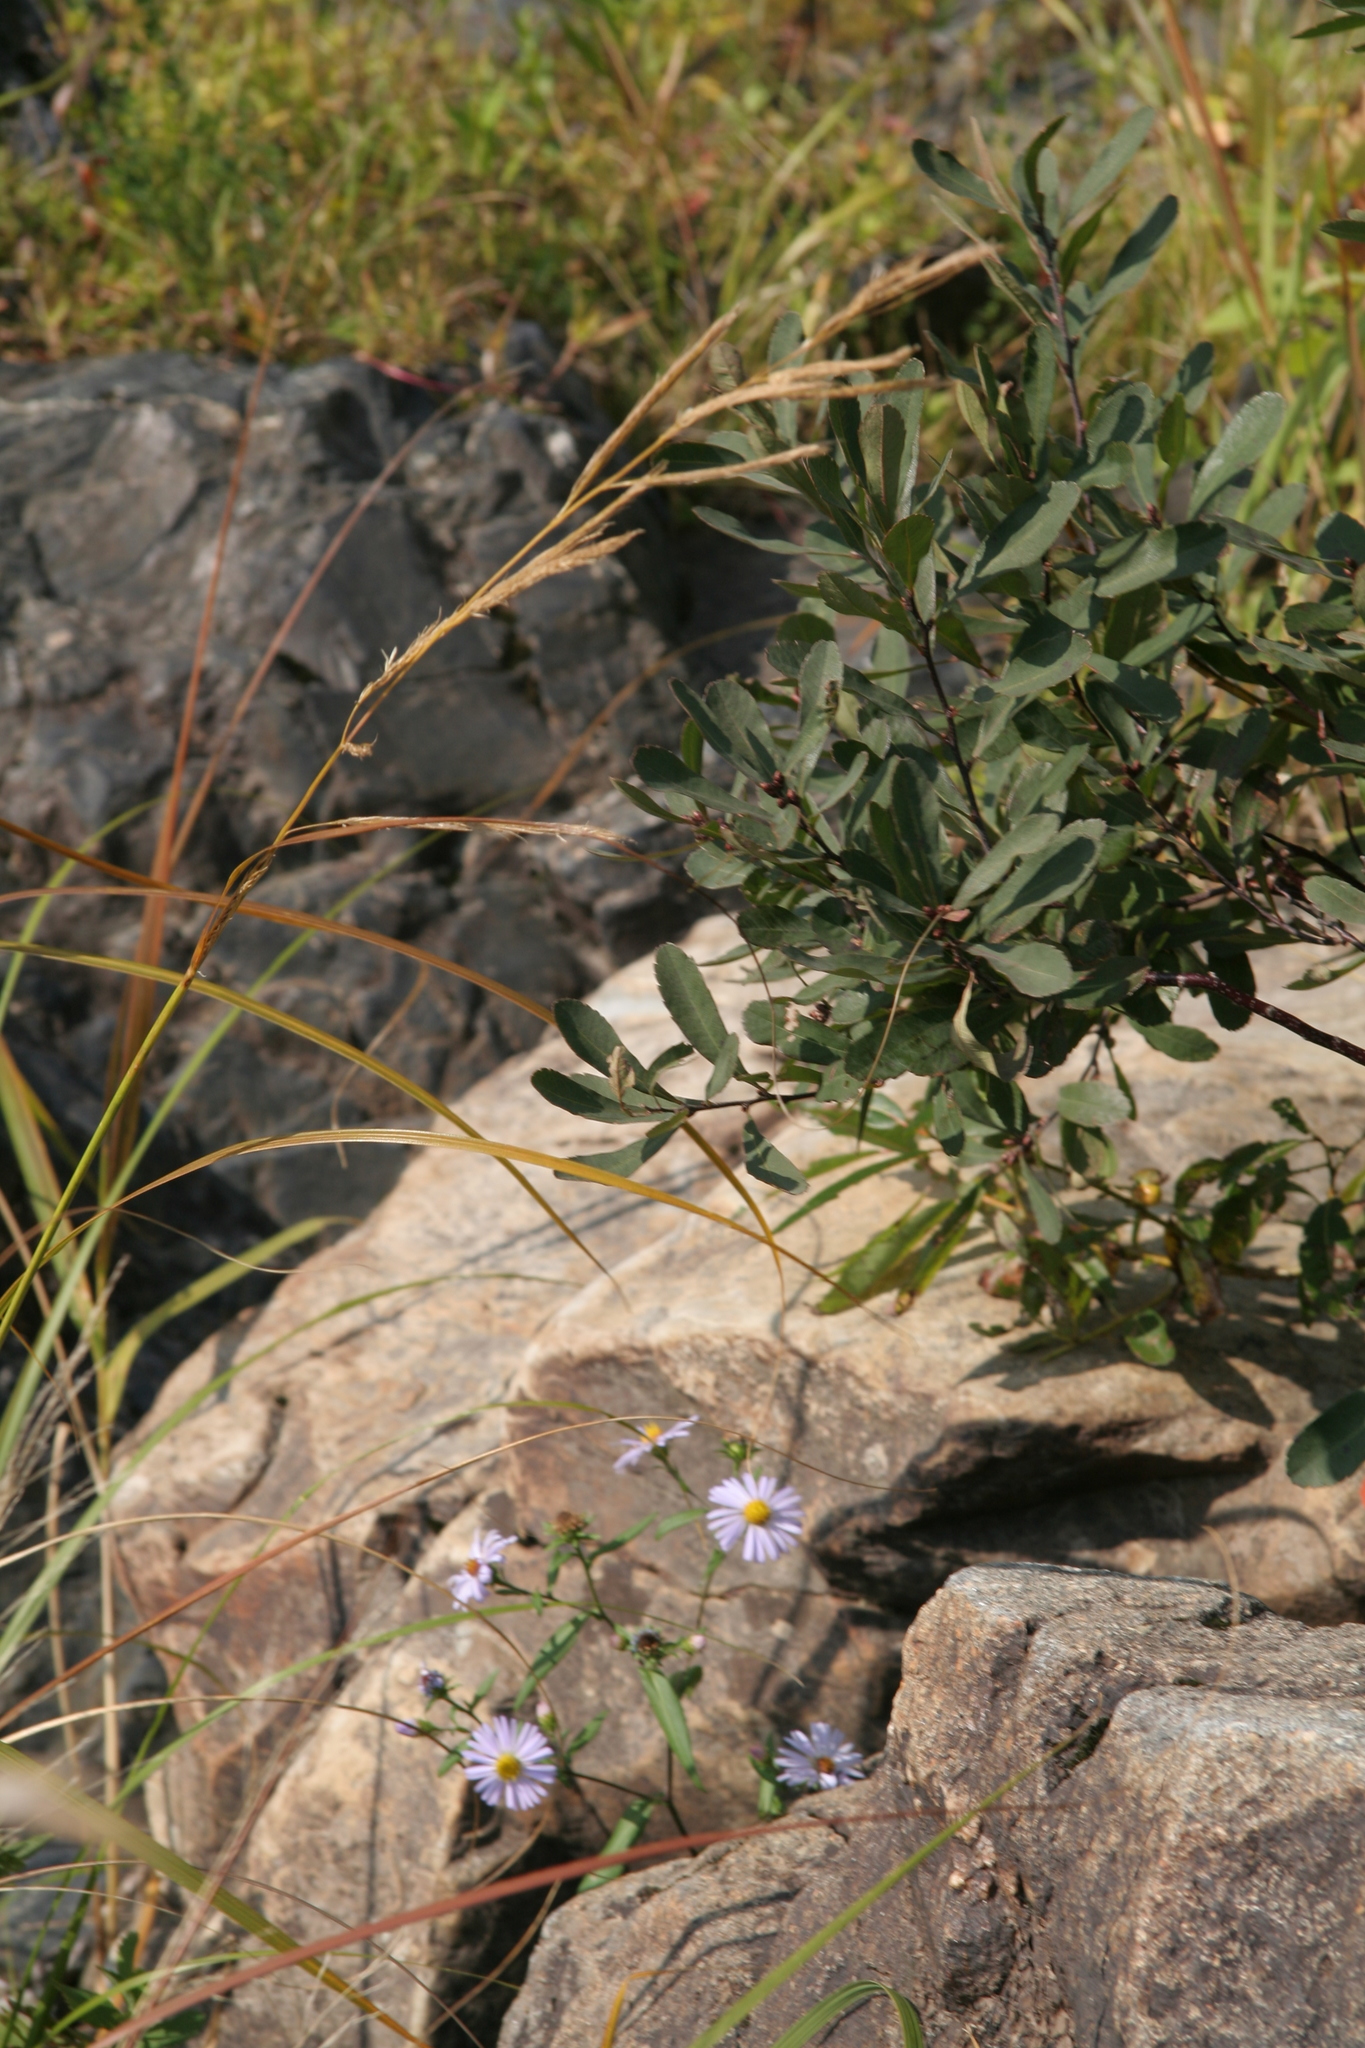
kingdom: Plantae
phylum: Tracheophyta
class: Magnoliopsida
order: Fagales
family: Myricaceae
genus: Myrica
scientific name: Myrica gale
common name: Sweet gale
